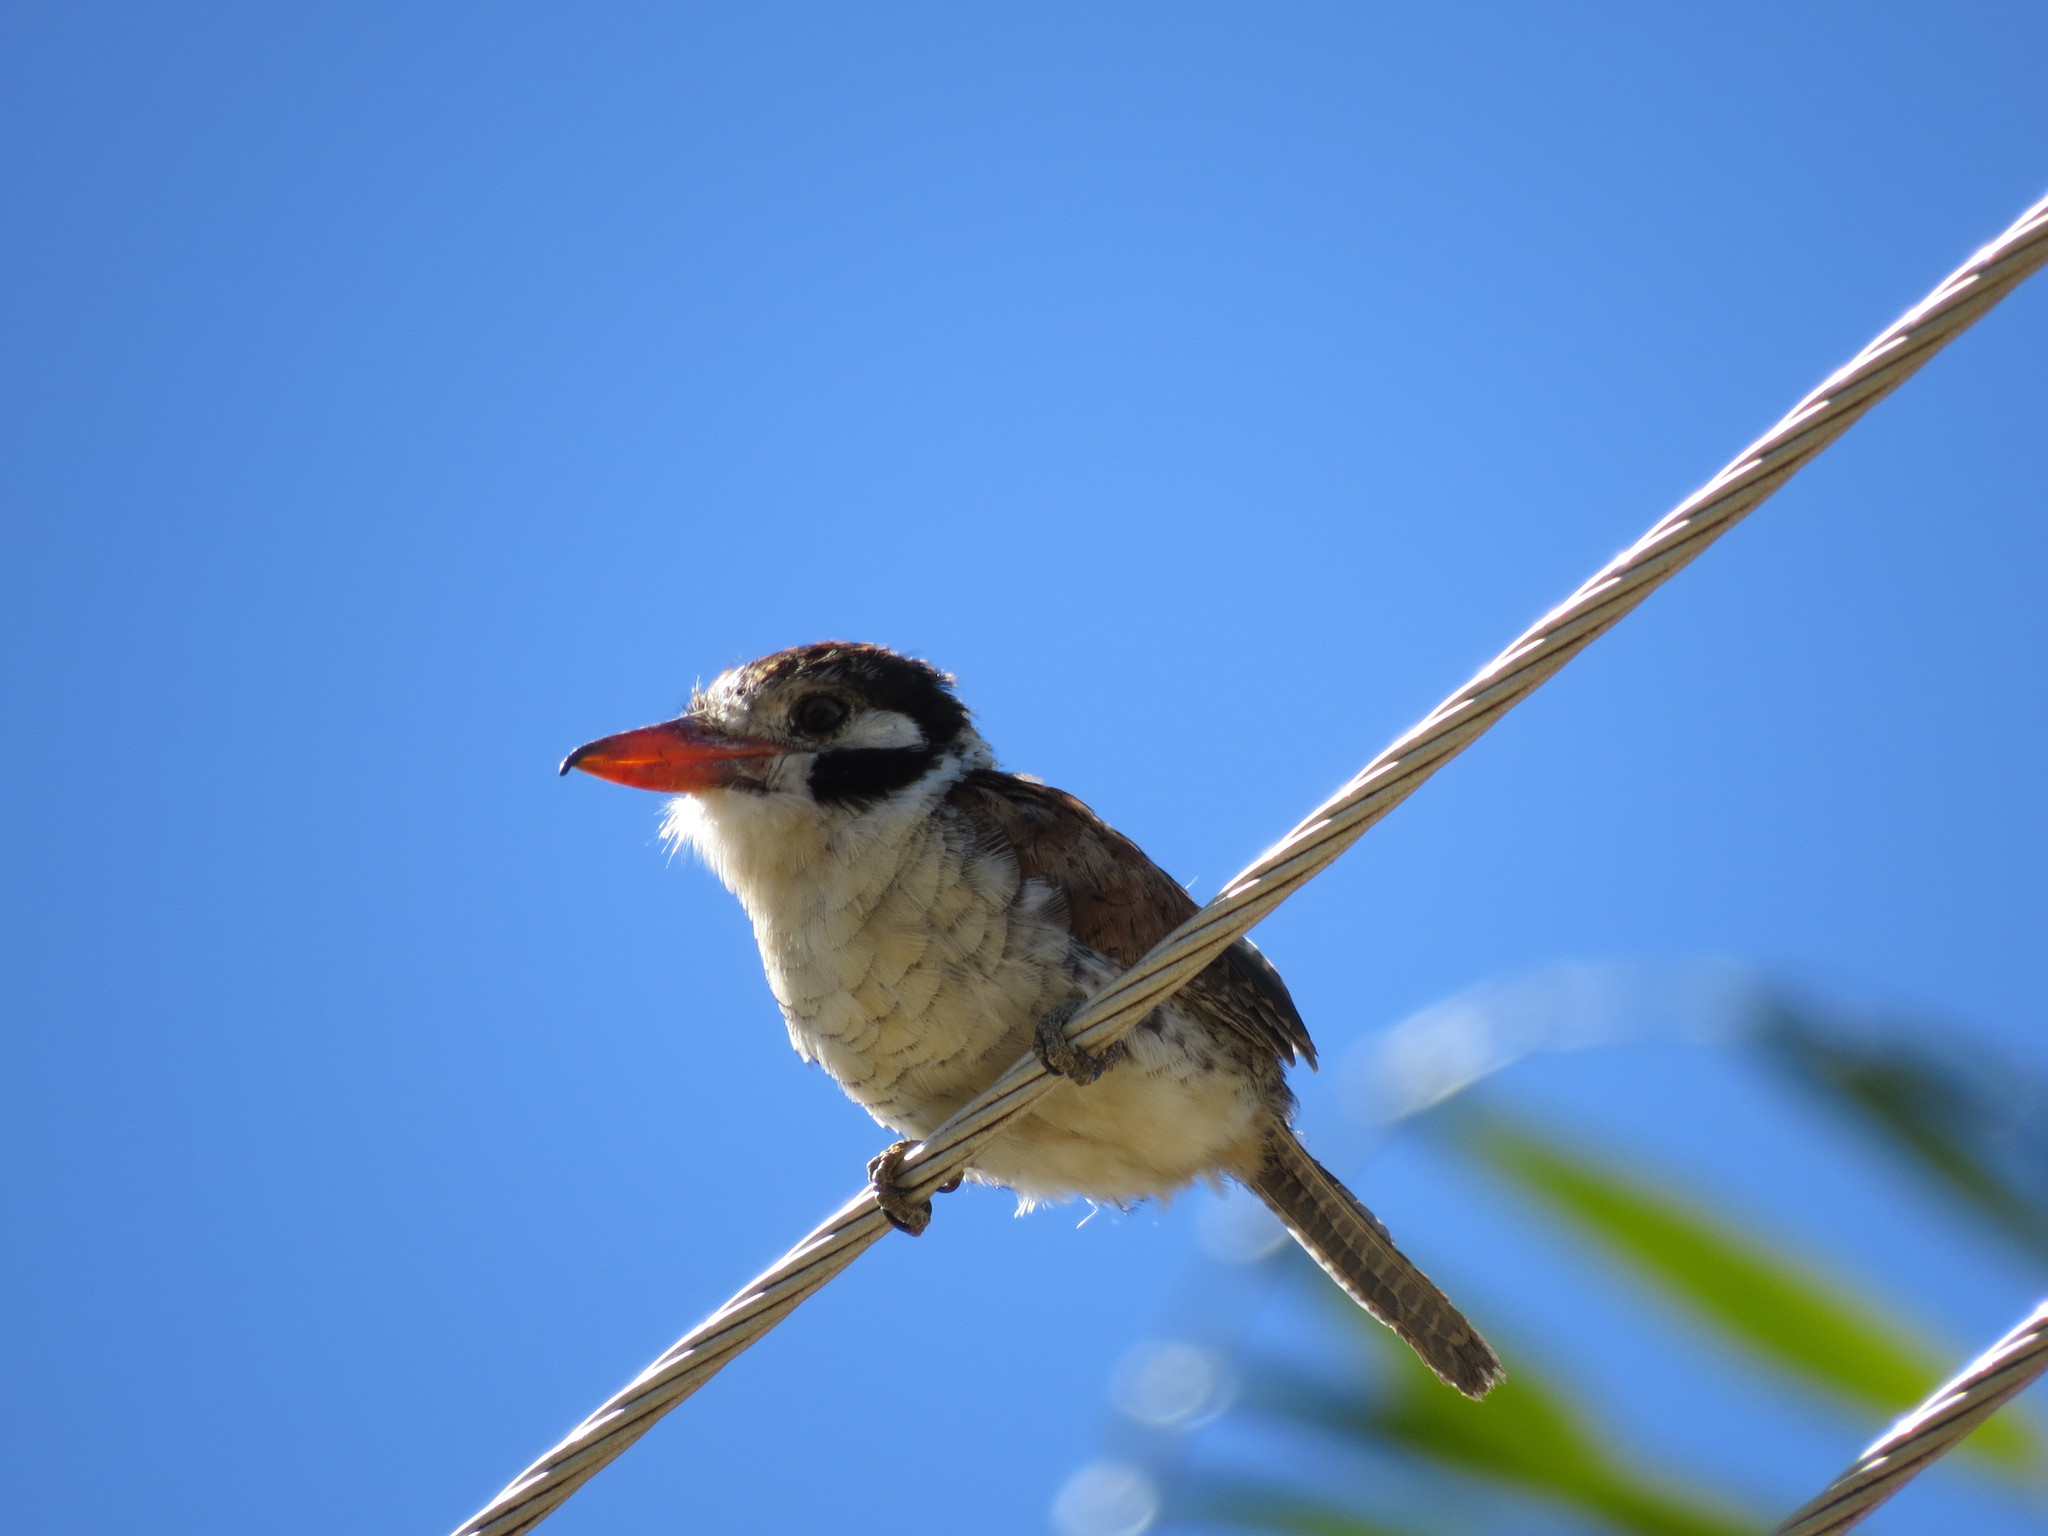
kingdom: Animalia
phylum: Chordata
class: Aves
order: Piciformes
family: Bucconidae
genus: Nystalus
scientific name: Nystalus chacuru
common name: White-eared puffbird
